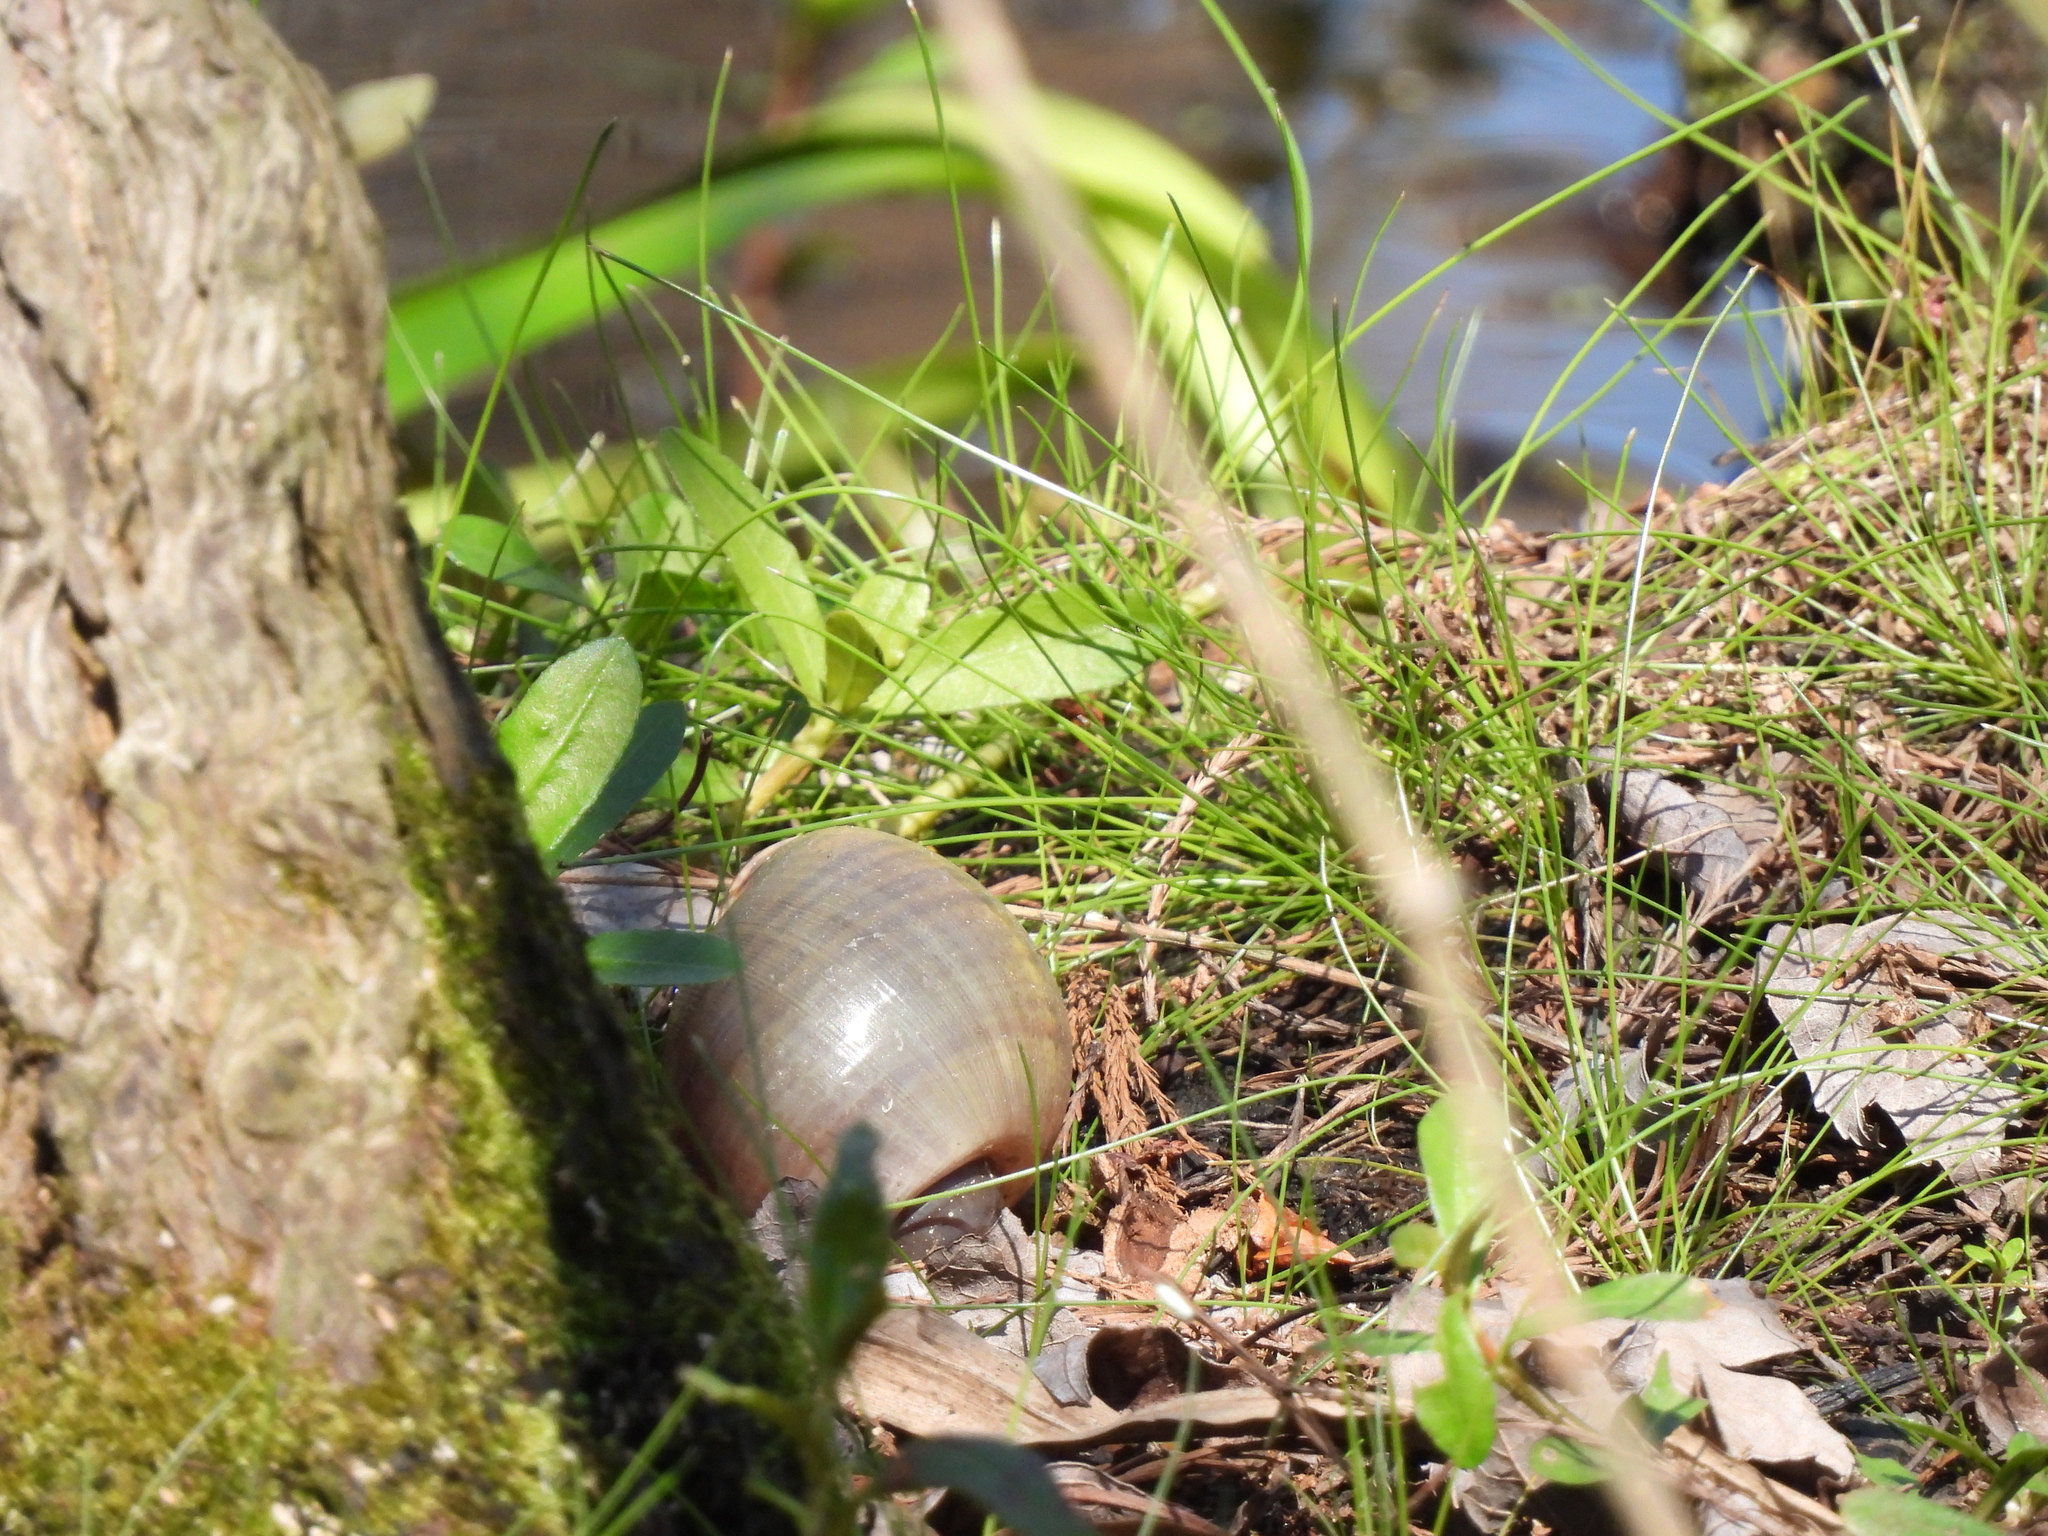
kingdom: Animalia
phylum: Mollusca
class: Gastropoda
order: Architaenioglossa
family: Ampullariidae
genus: Pomacea
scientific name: Pomacea maculata
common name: Giant applesnail
